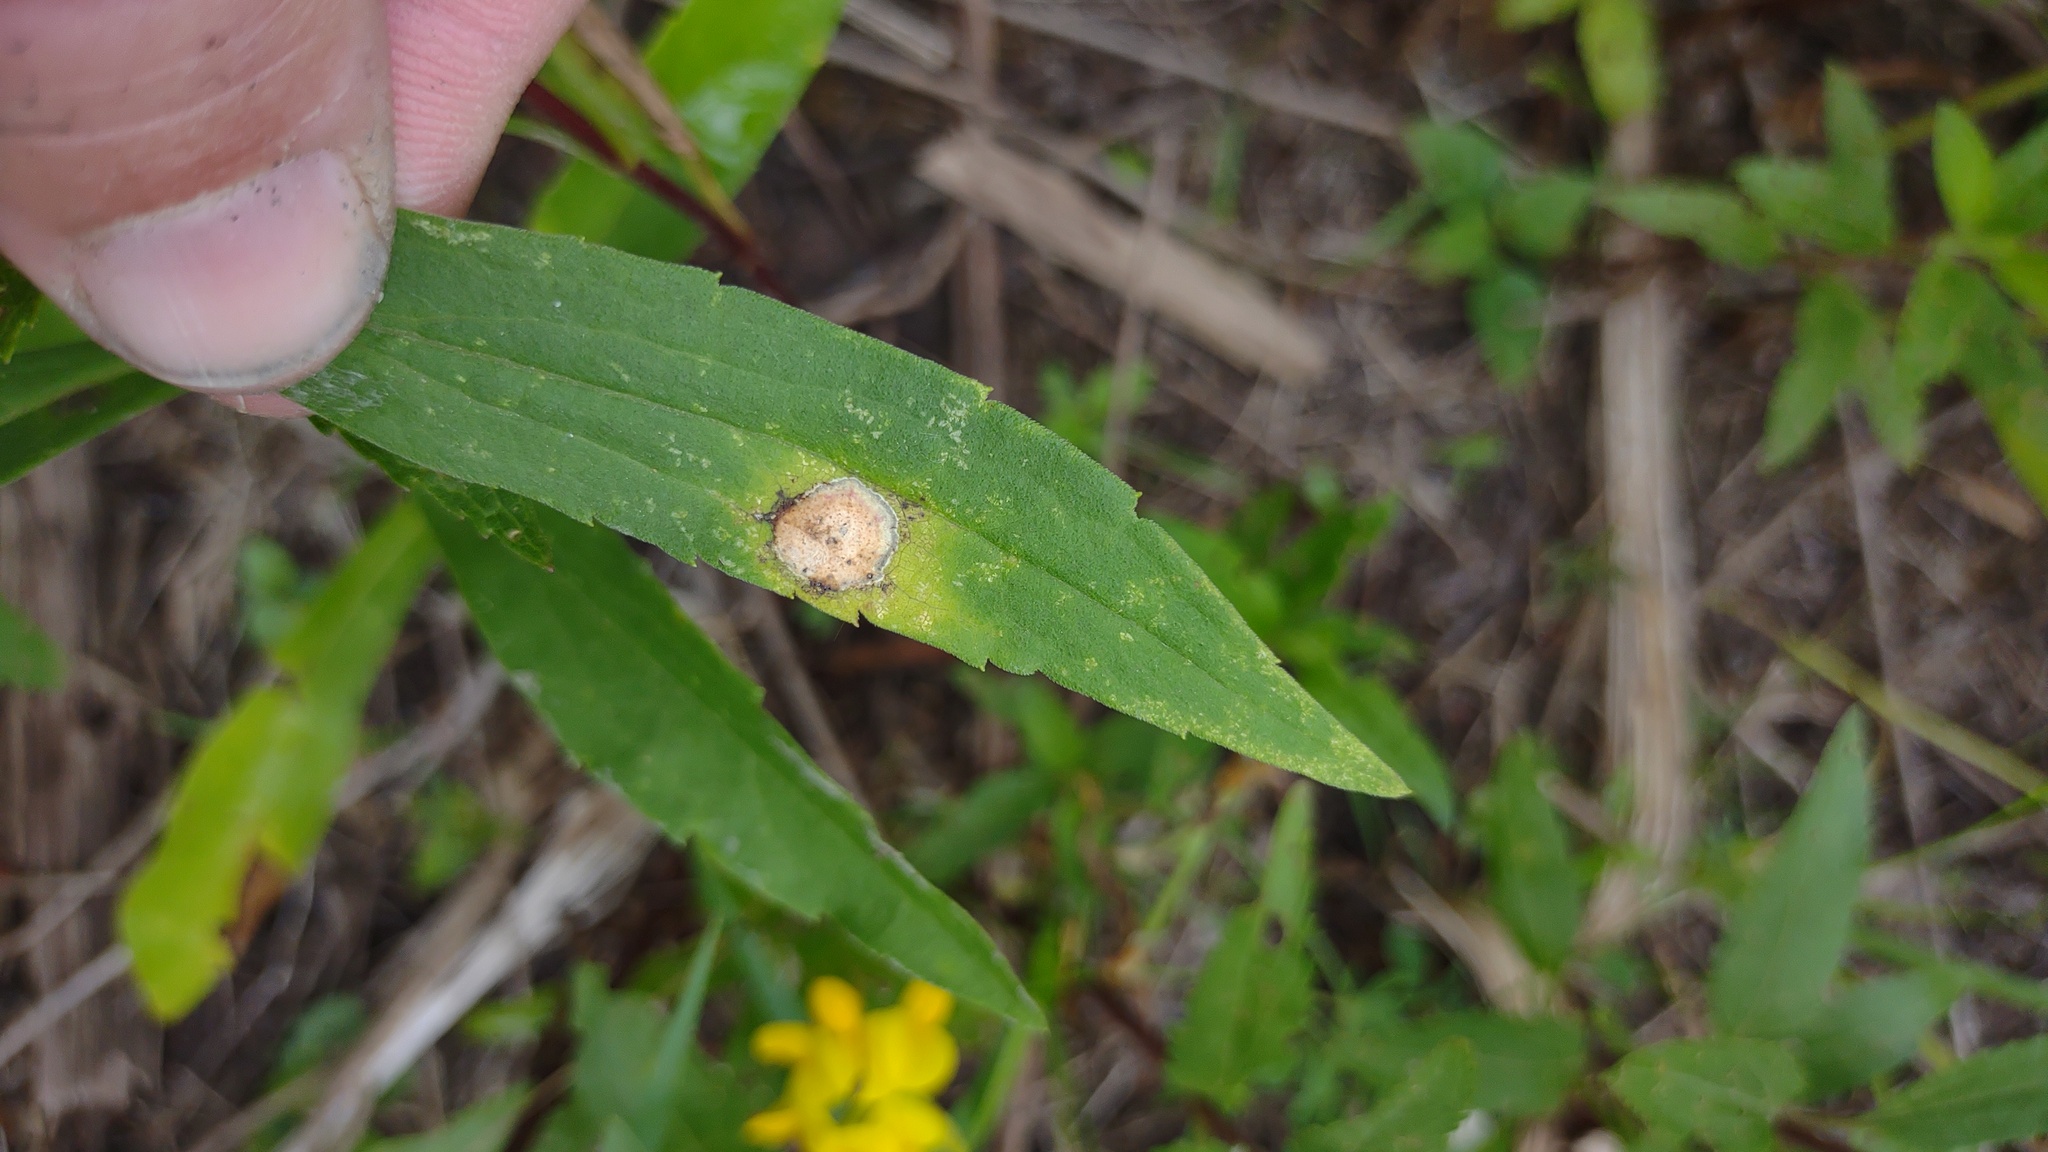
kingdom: Animalia
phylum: Arthropoda
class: Insecta
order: Diptera
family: Cecidomyiidae
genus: Asteromyia
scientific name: Asteromyia carbonifera
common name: Carbonifera goldenrod gall midge
